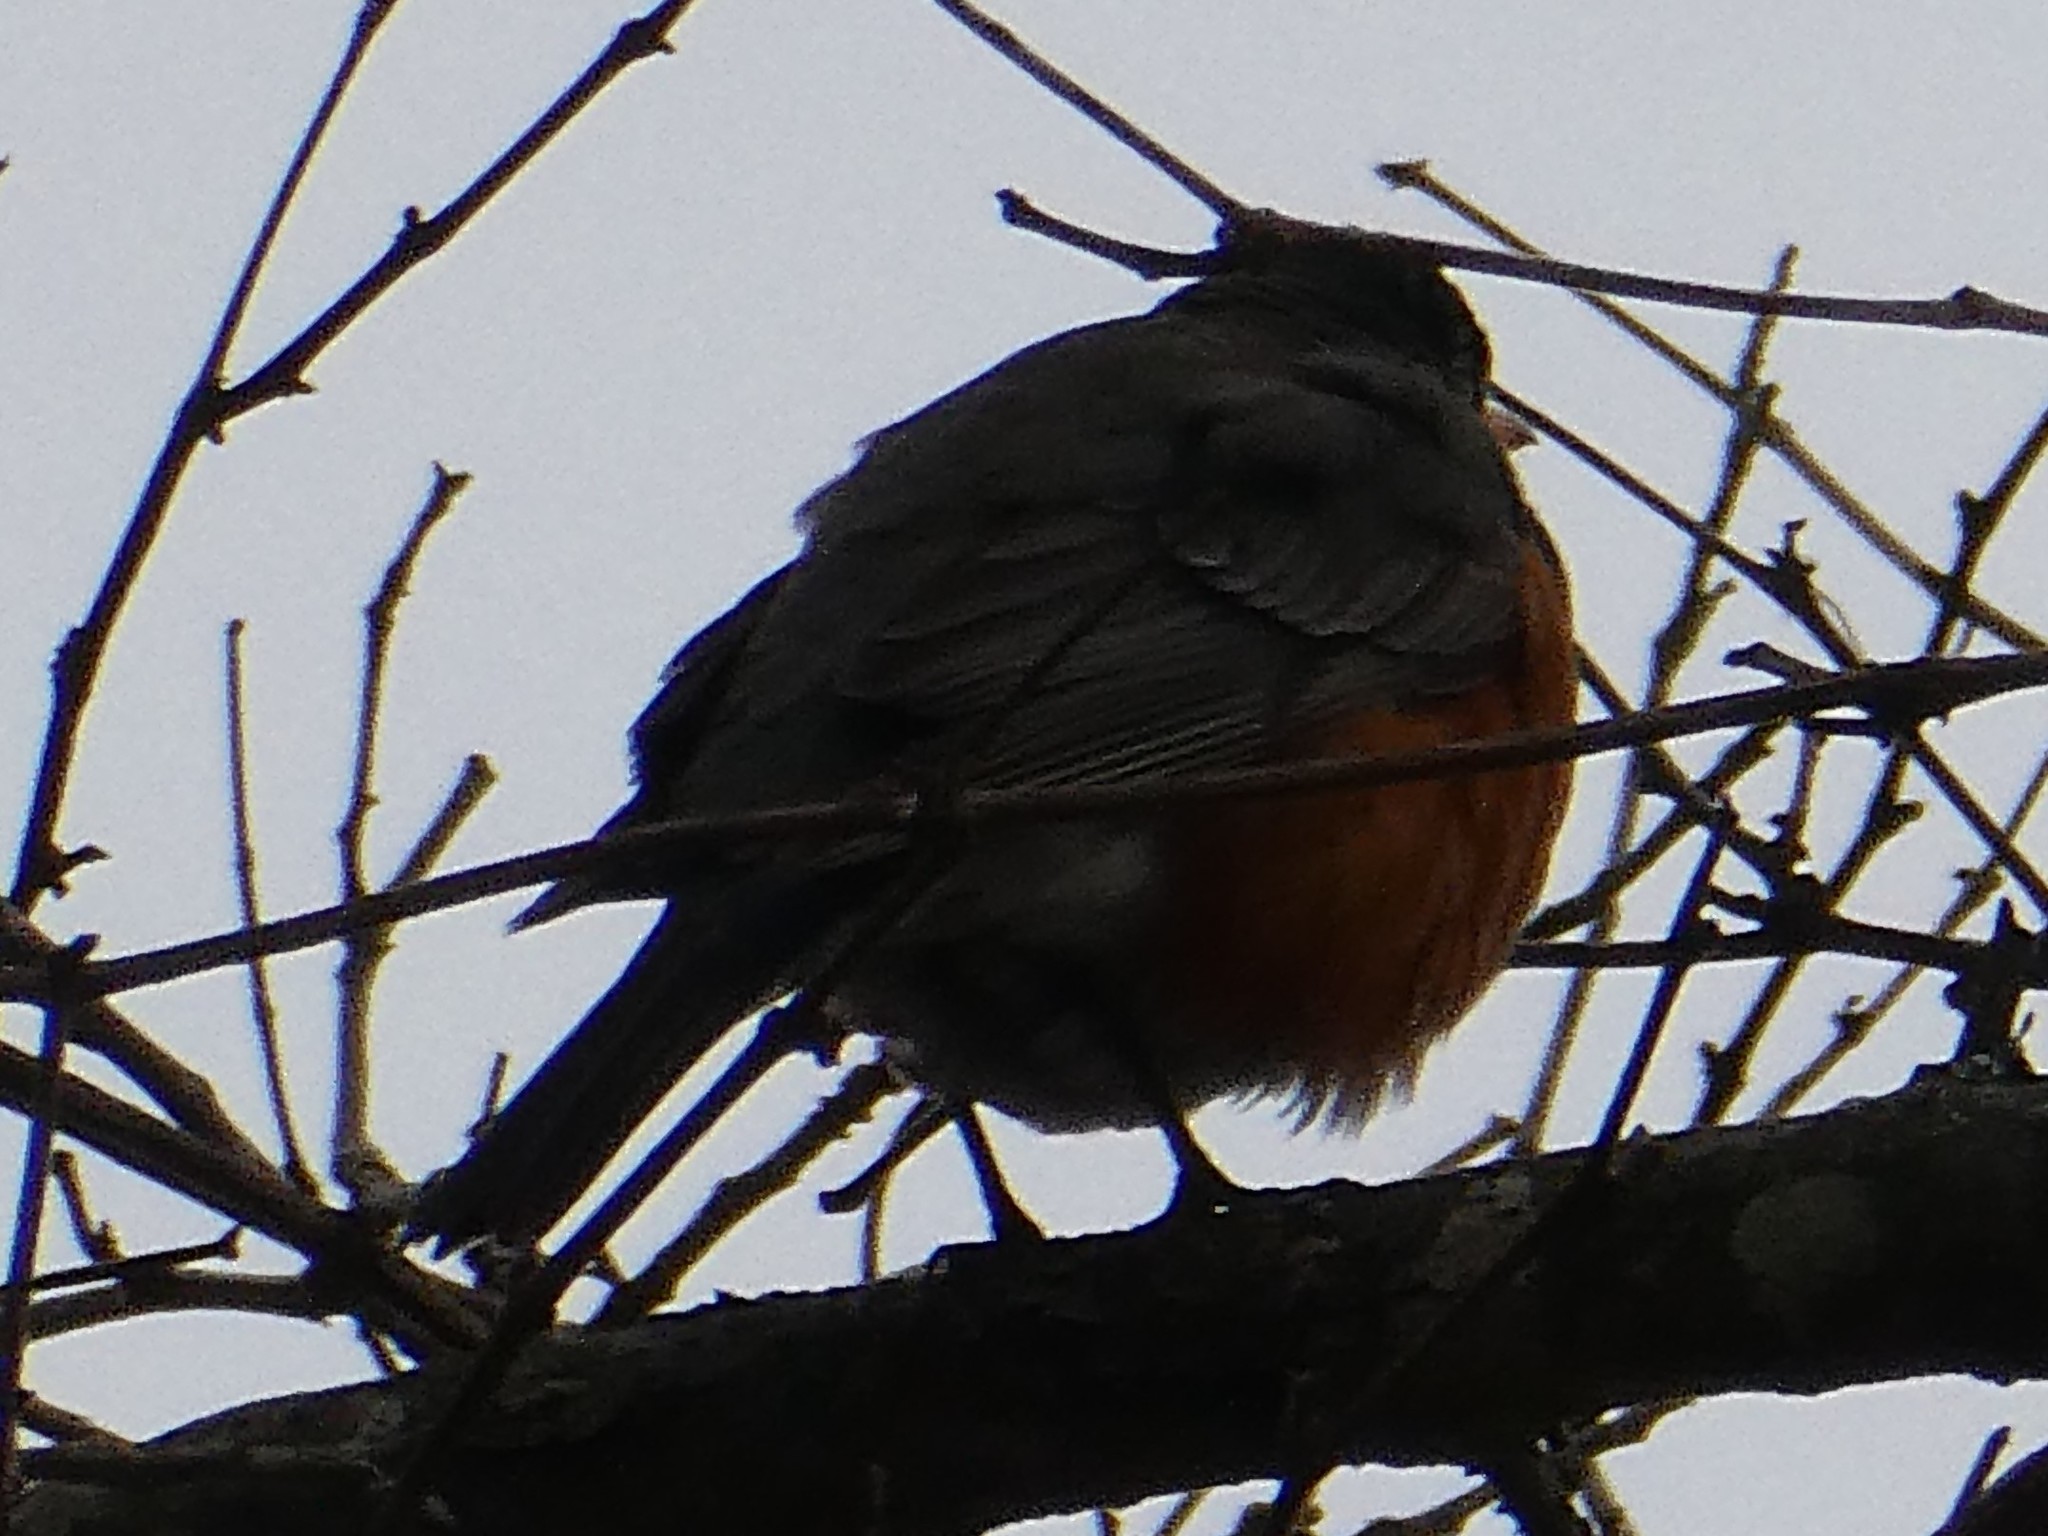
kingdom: Animalia
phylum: Chordata
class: Aves
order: Passeriformes
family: Turdidae
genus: Turdus
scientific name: Turdus migratorius
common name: American robin
